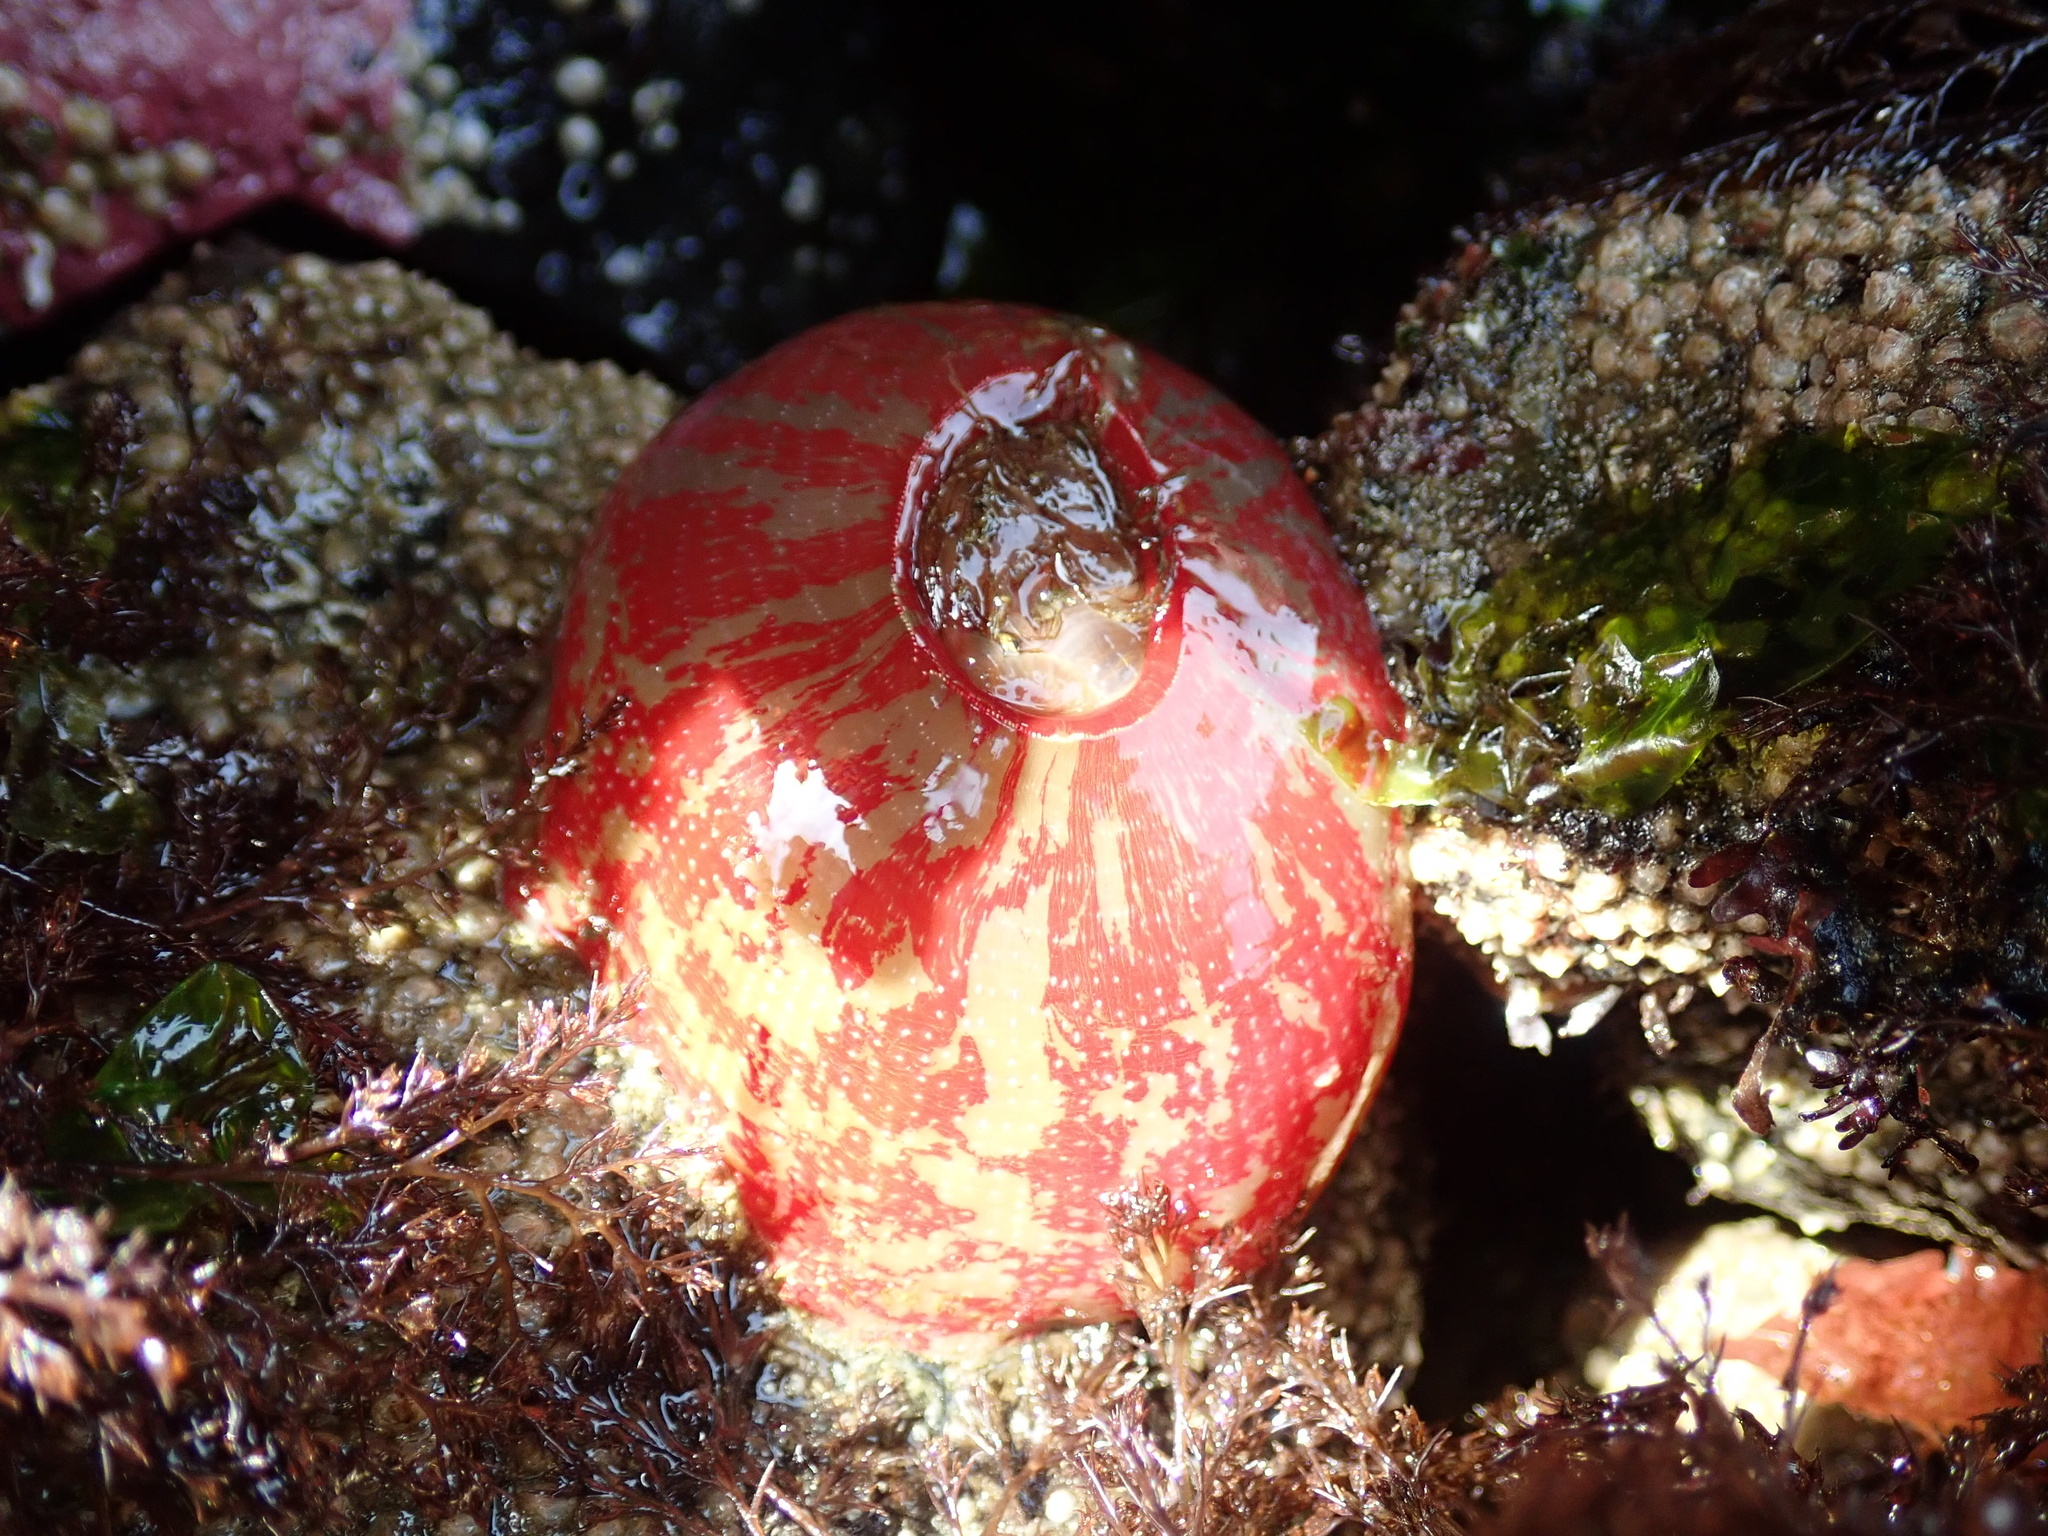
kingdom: Animalia
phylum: Cnidaria
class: Anthozoa
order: Actiniaria
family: Actiniidae
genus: Urticina
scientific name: Urticina grebelnyi
